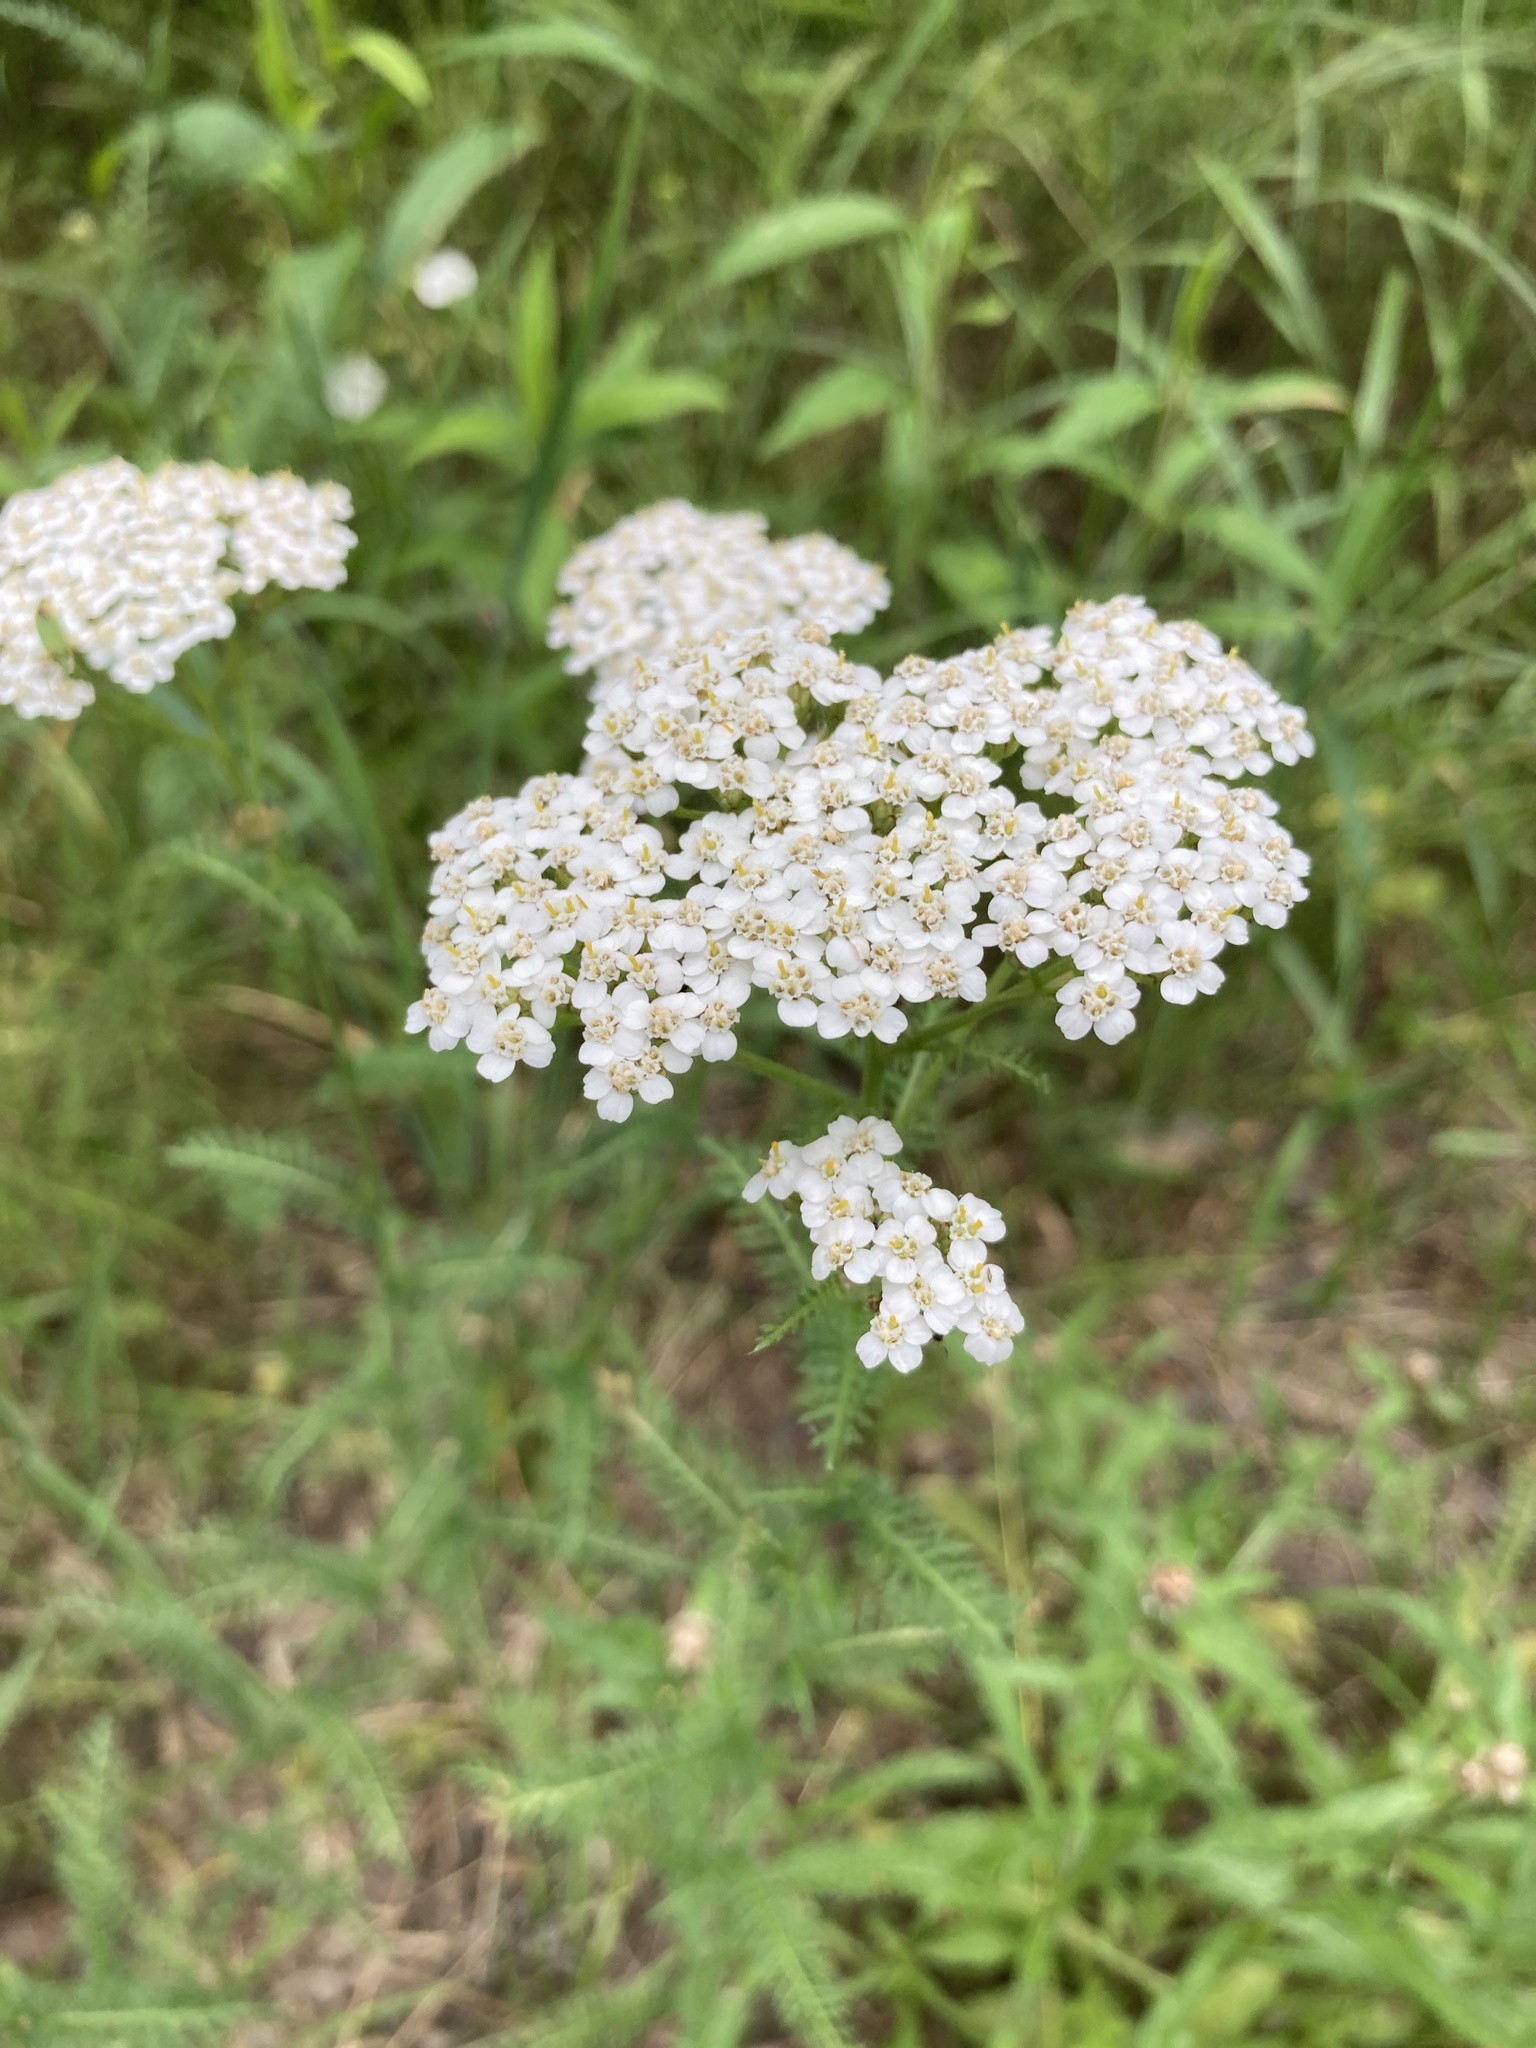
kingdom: Plantae
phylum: Tracheophyta
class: Magnoliopsida
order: Asterales
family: Asteraceae
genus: Achillea
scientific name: Achillea millefolium
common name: Yarrow
